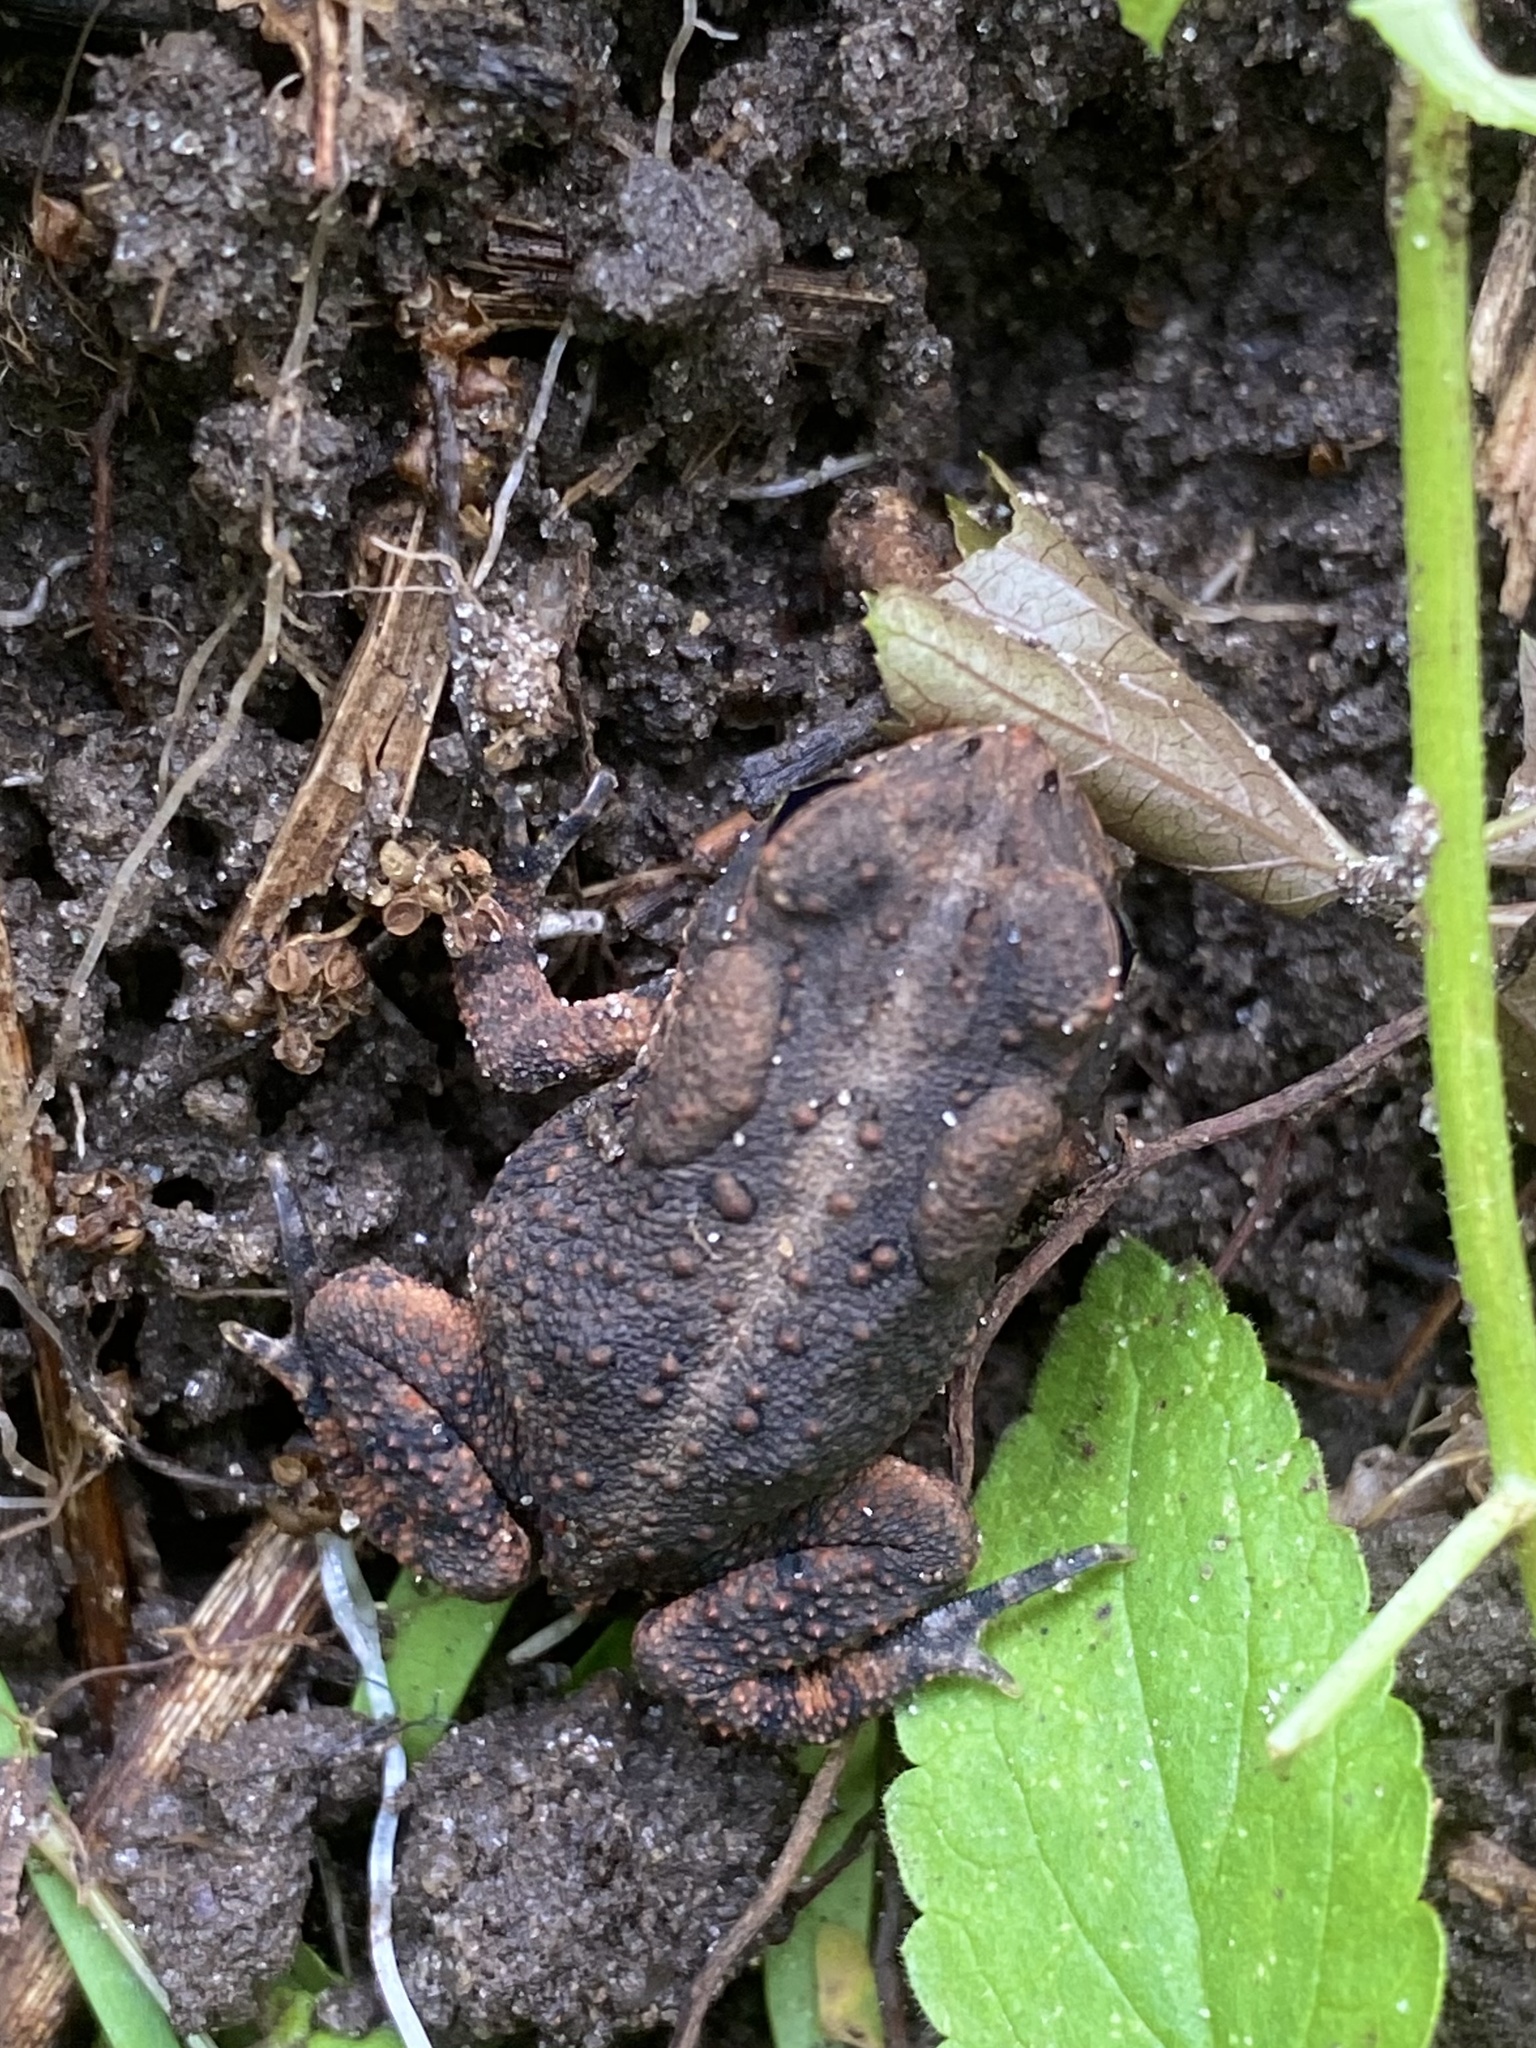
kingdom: Animalia
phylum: Chordata
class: Amphibia
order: Anura
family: Bufonidae
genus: Anaxyrus
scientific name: Anaxyrus terrestris
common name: Southern toad
